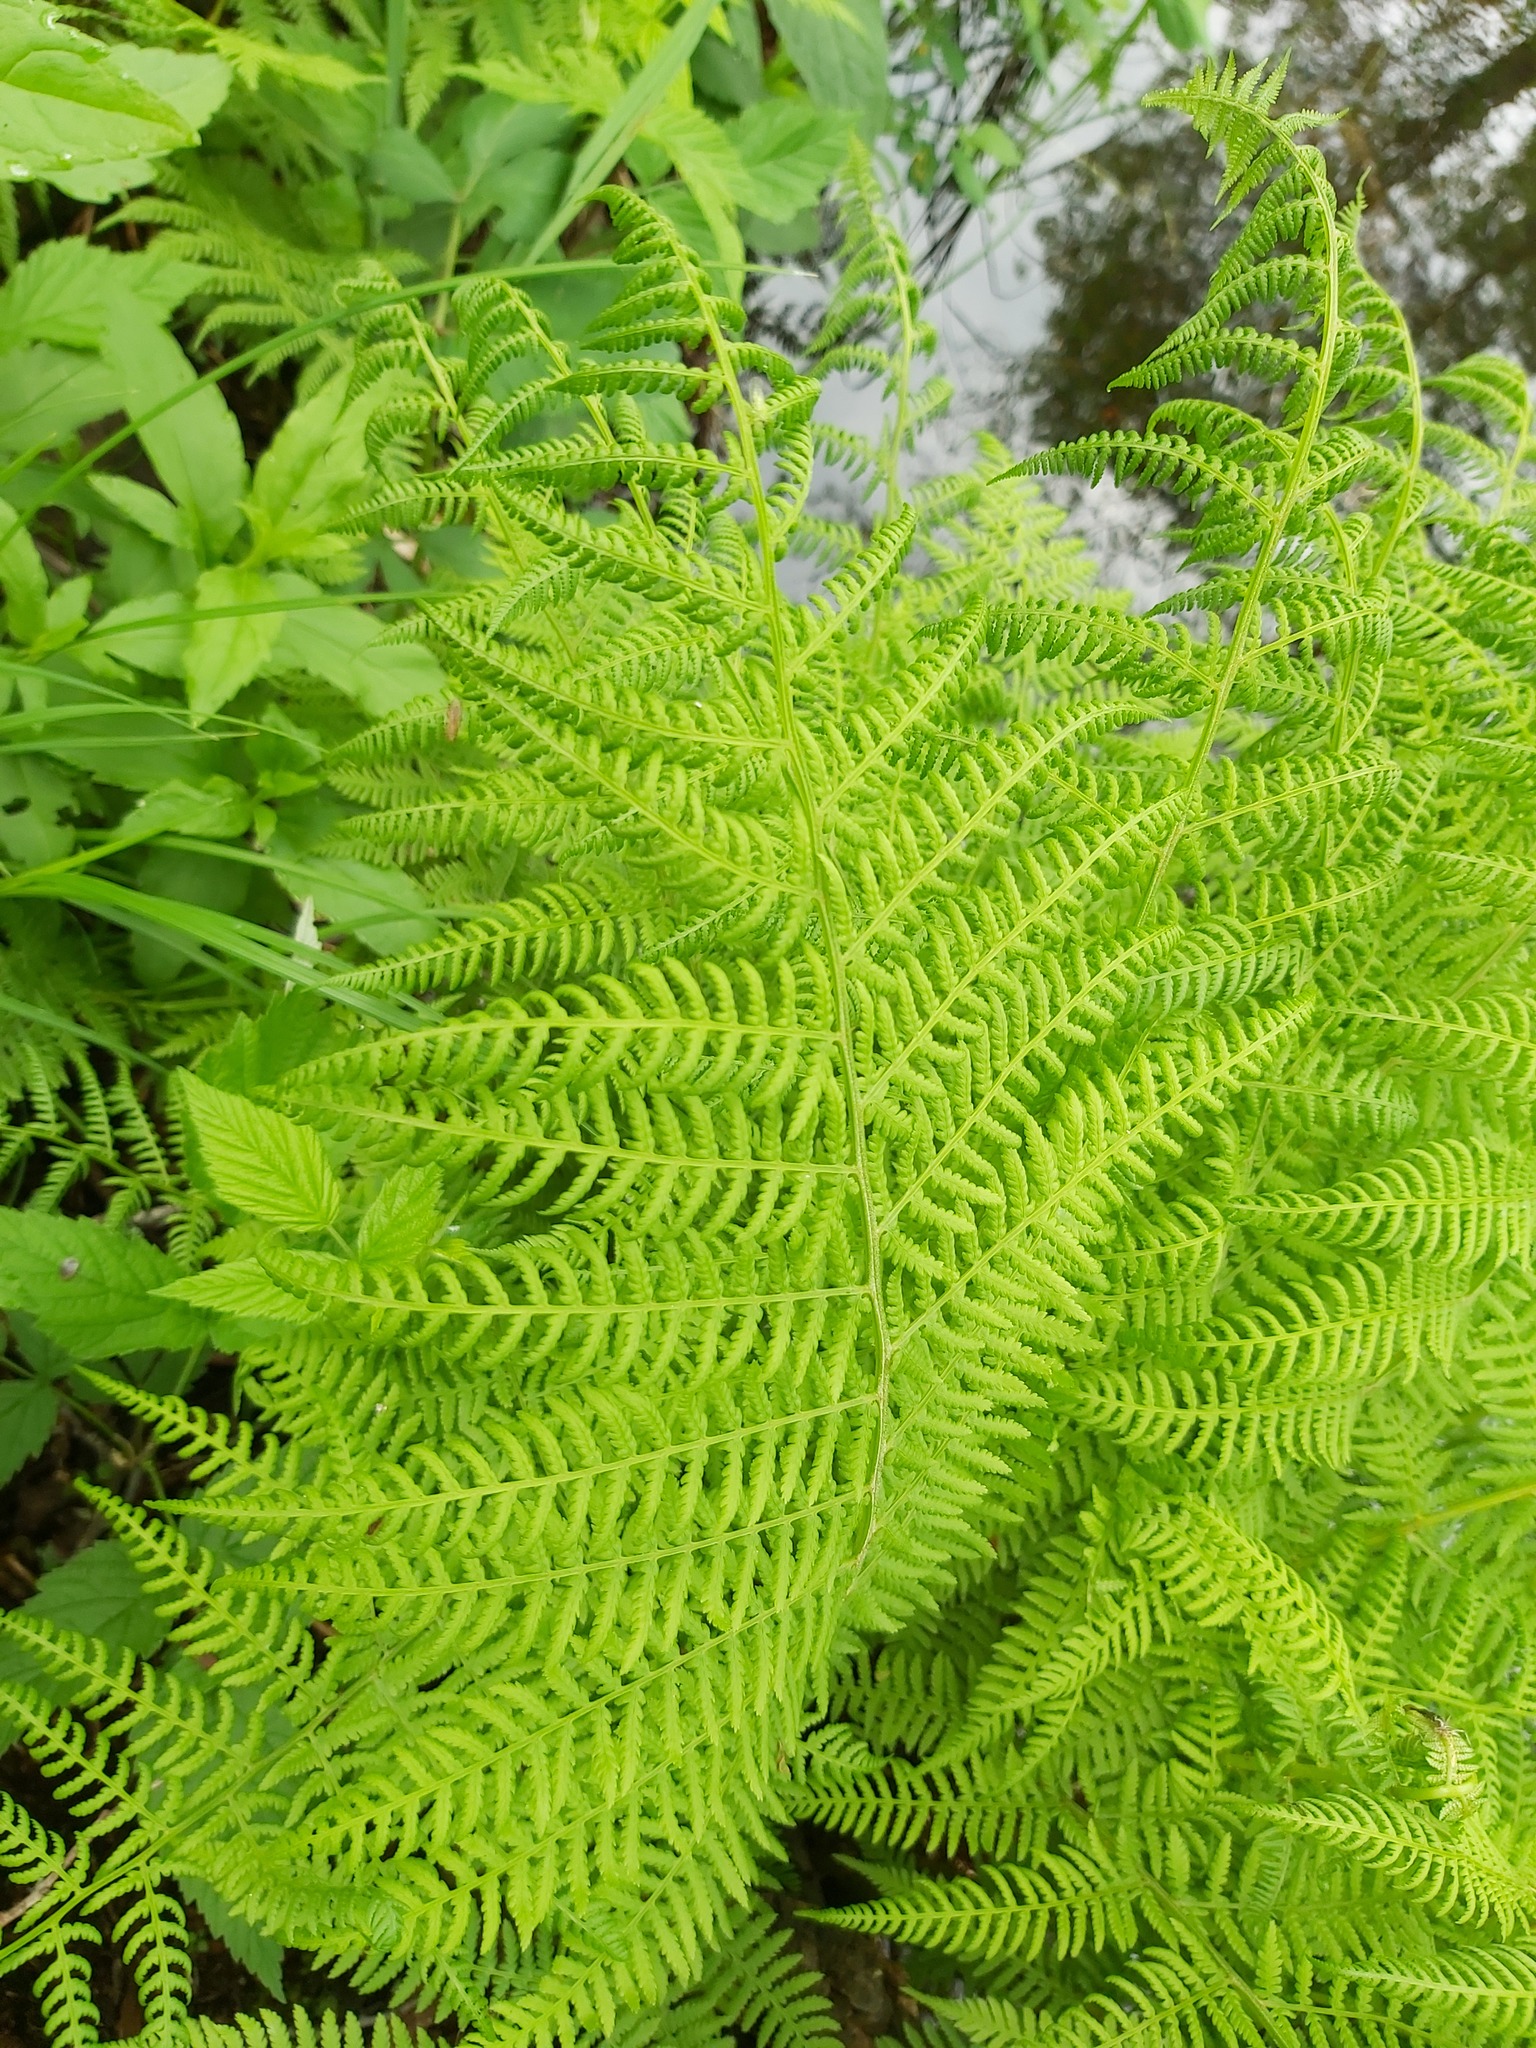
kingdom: Plantae
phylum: Tracheophyta
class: Polypodiopsida
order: Polypodiales
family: Athyriaceae
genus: Athyrium
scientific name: Athyrium filix-femina
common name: Lady fern
